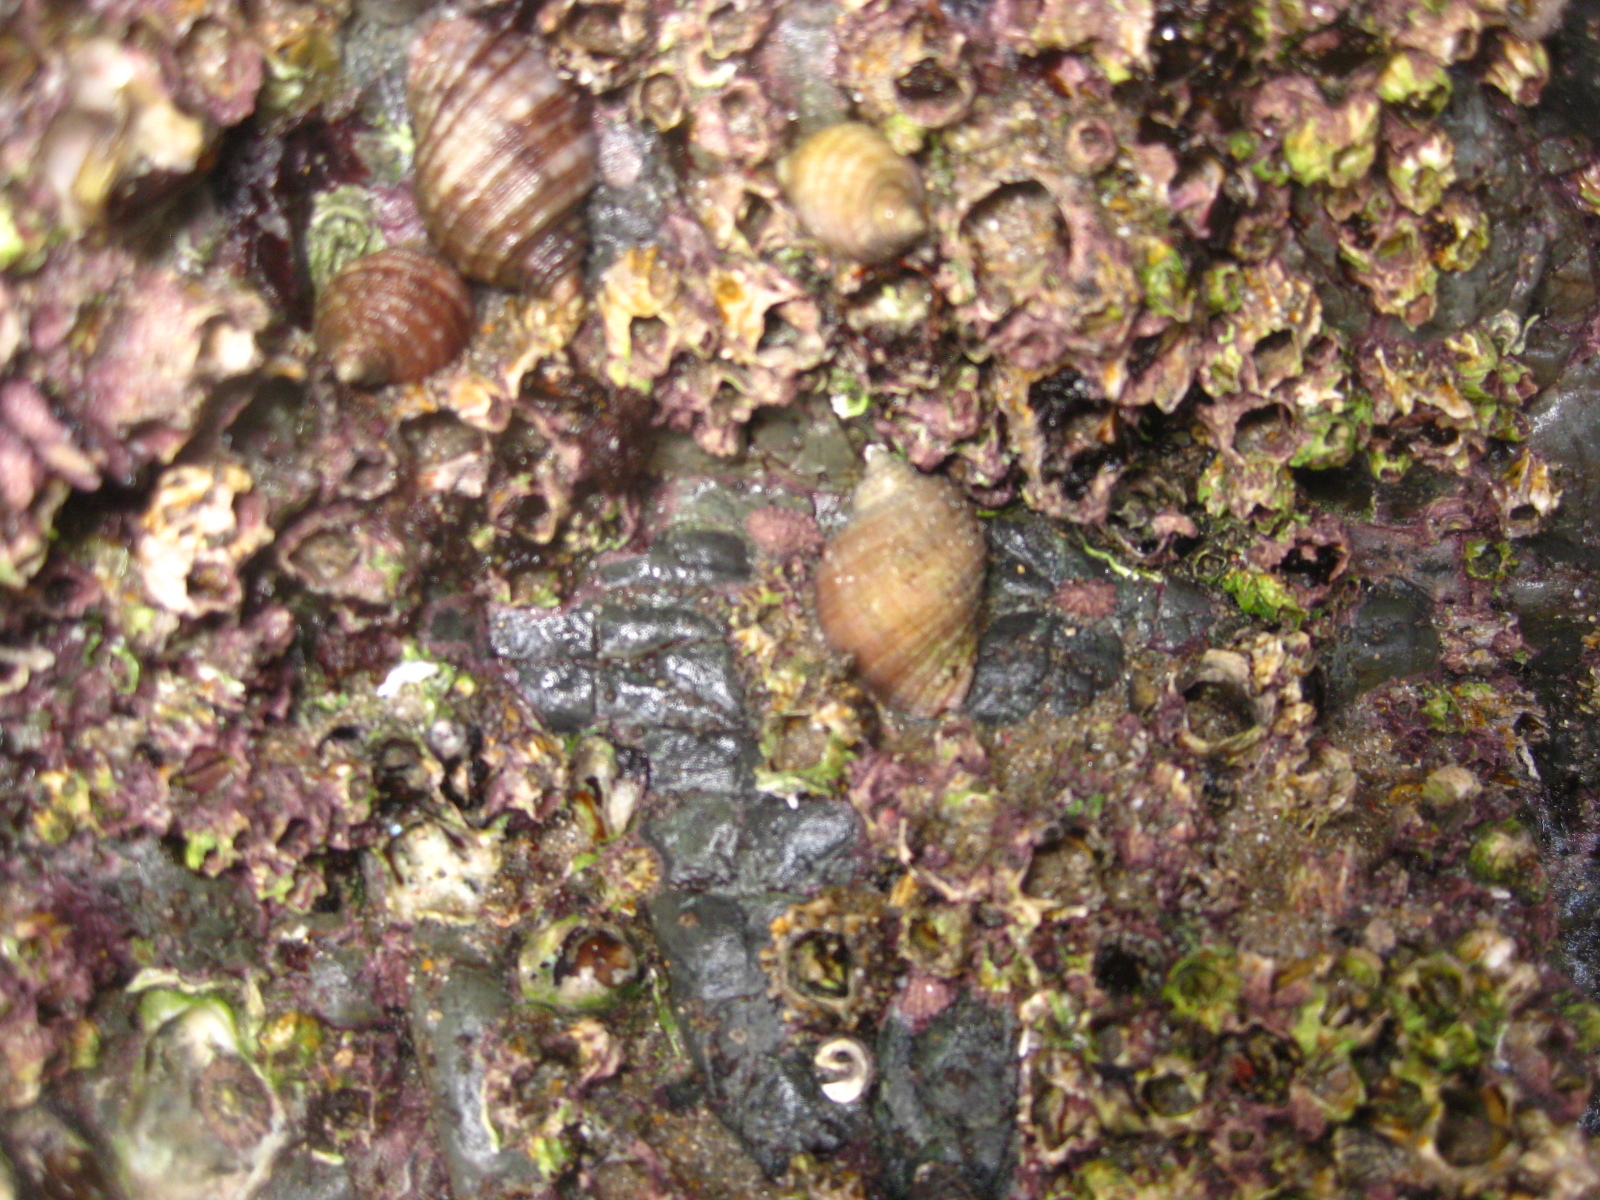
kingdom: Animalia
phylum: Mollusca
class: Gastropoda
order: Neogastropoda
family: Muricidae
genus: Dicathais
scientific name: Dicathais orbita
